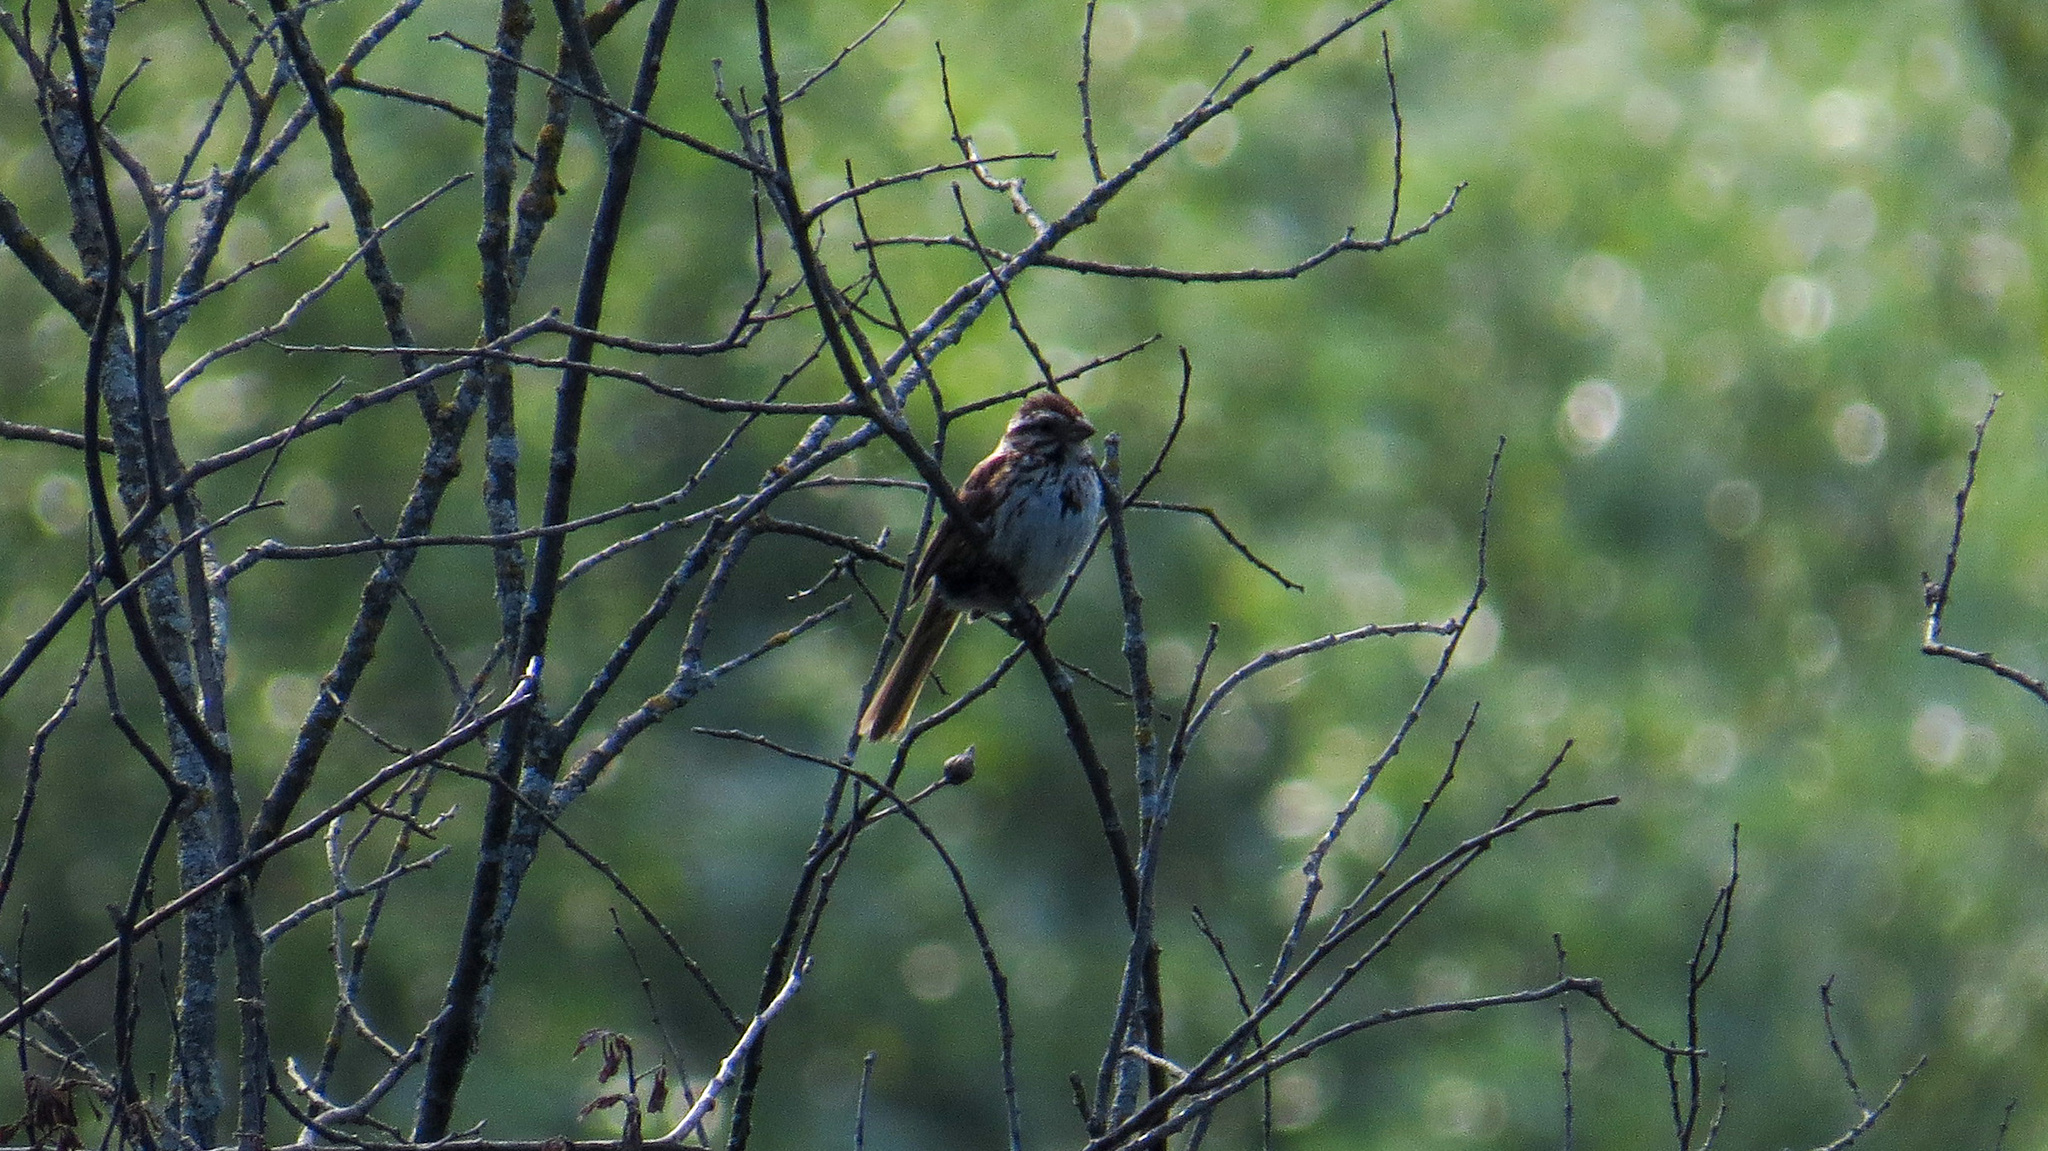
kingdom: Animalia
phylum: Chordata
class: Aves
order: Passeriformes
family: Passerellidae
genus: Melospiza
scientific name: Melospiza melodia
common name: Song sparrow
